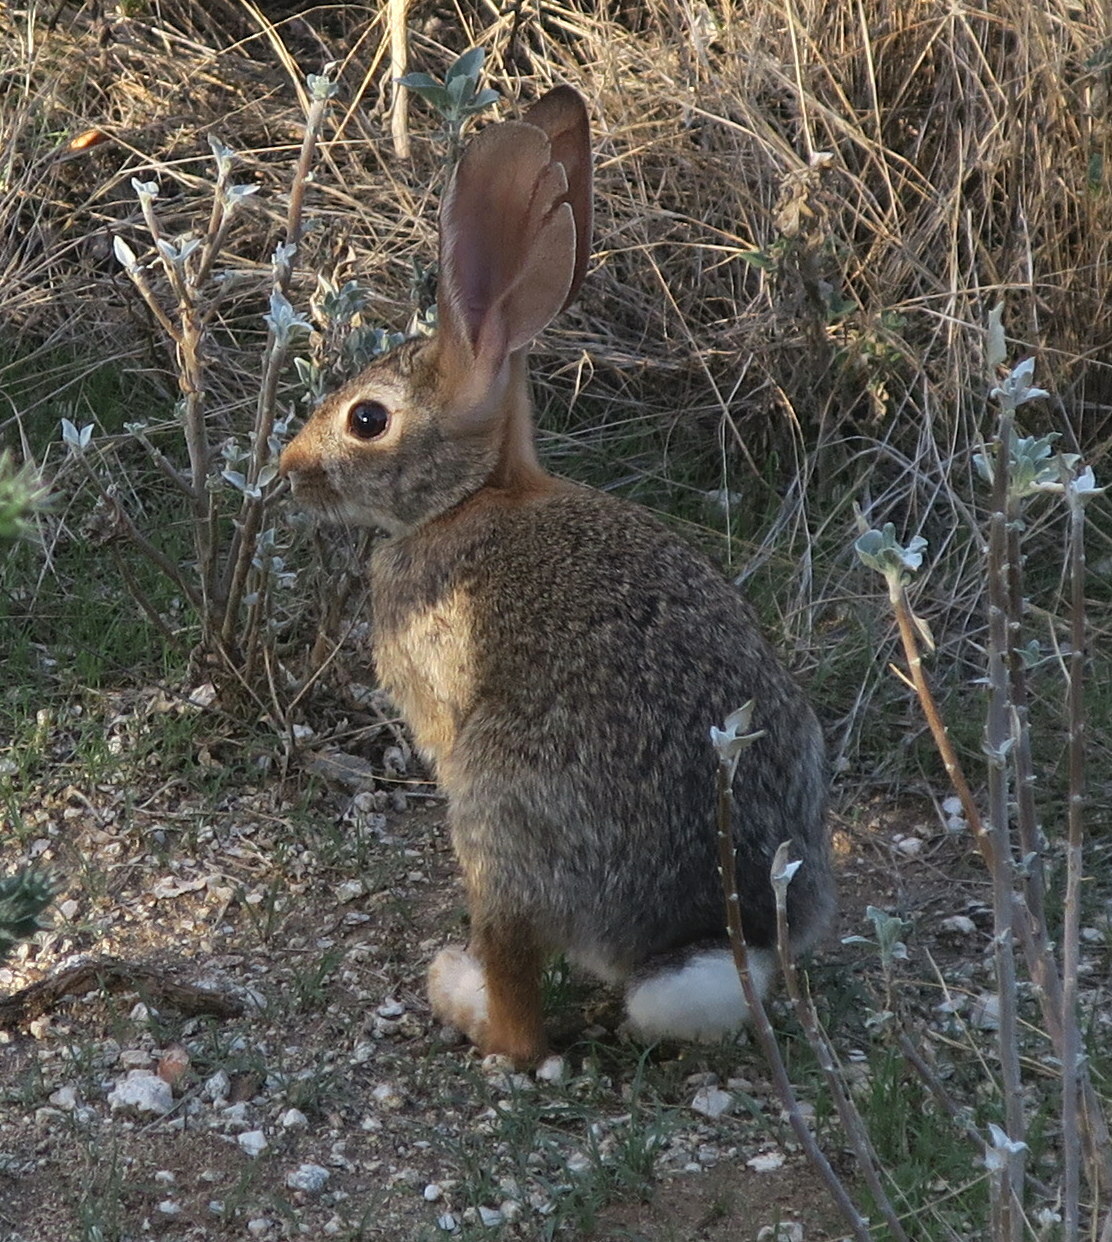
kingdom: Animalia
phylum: Chordata
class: Mammalia
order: Lagomorpha
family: Leporidae
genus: Sylvilagus
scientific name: Sylvilagus audubonii
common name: Desert cottontail
